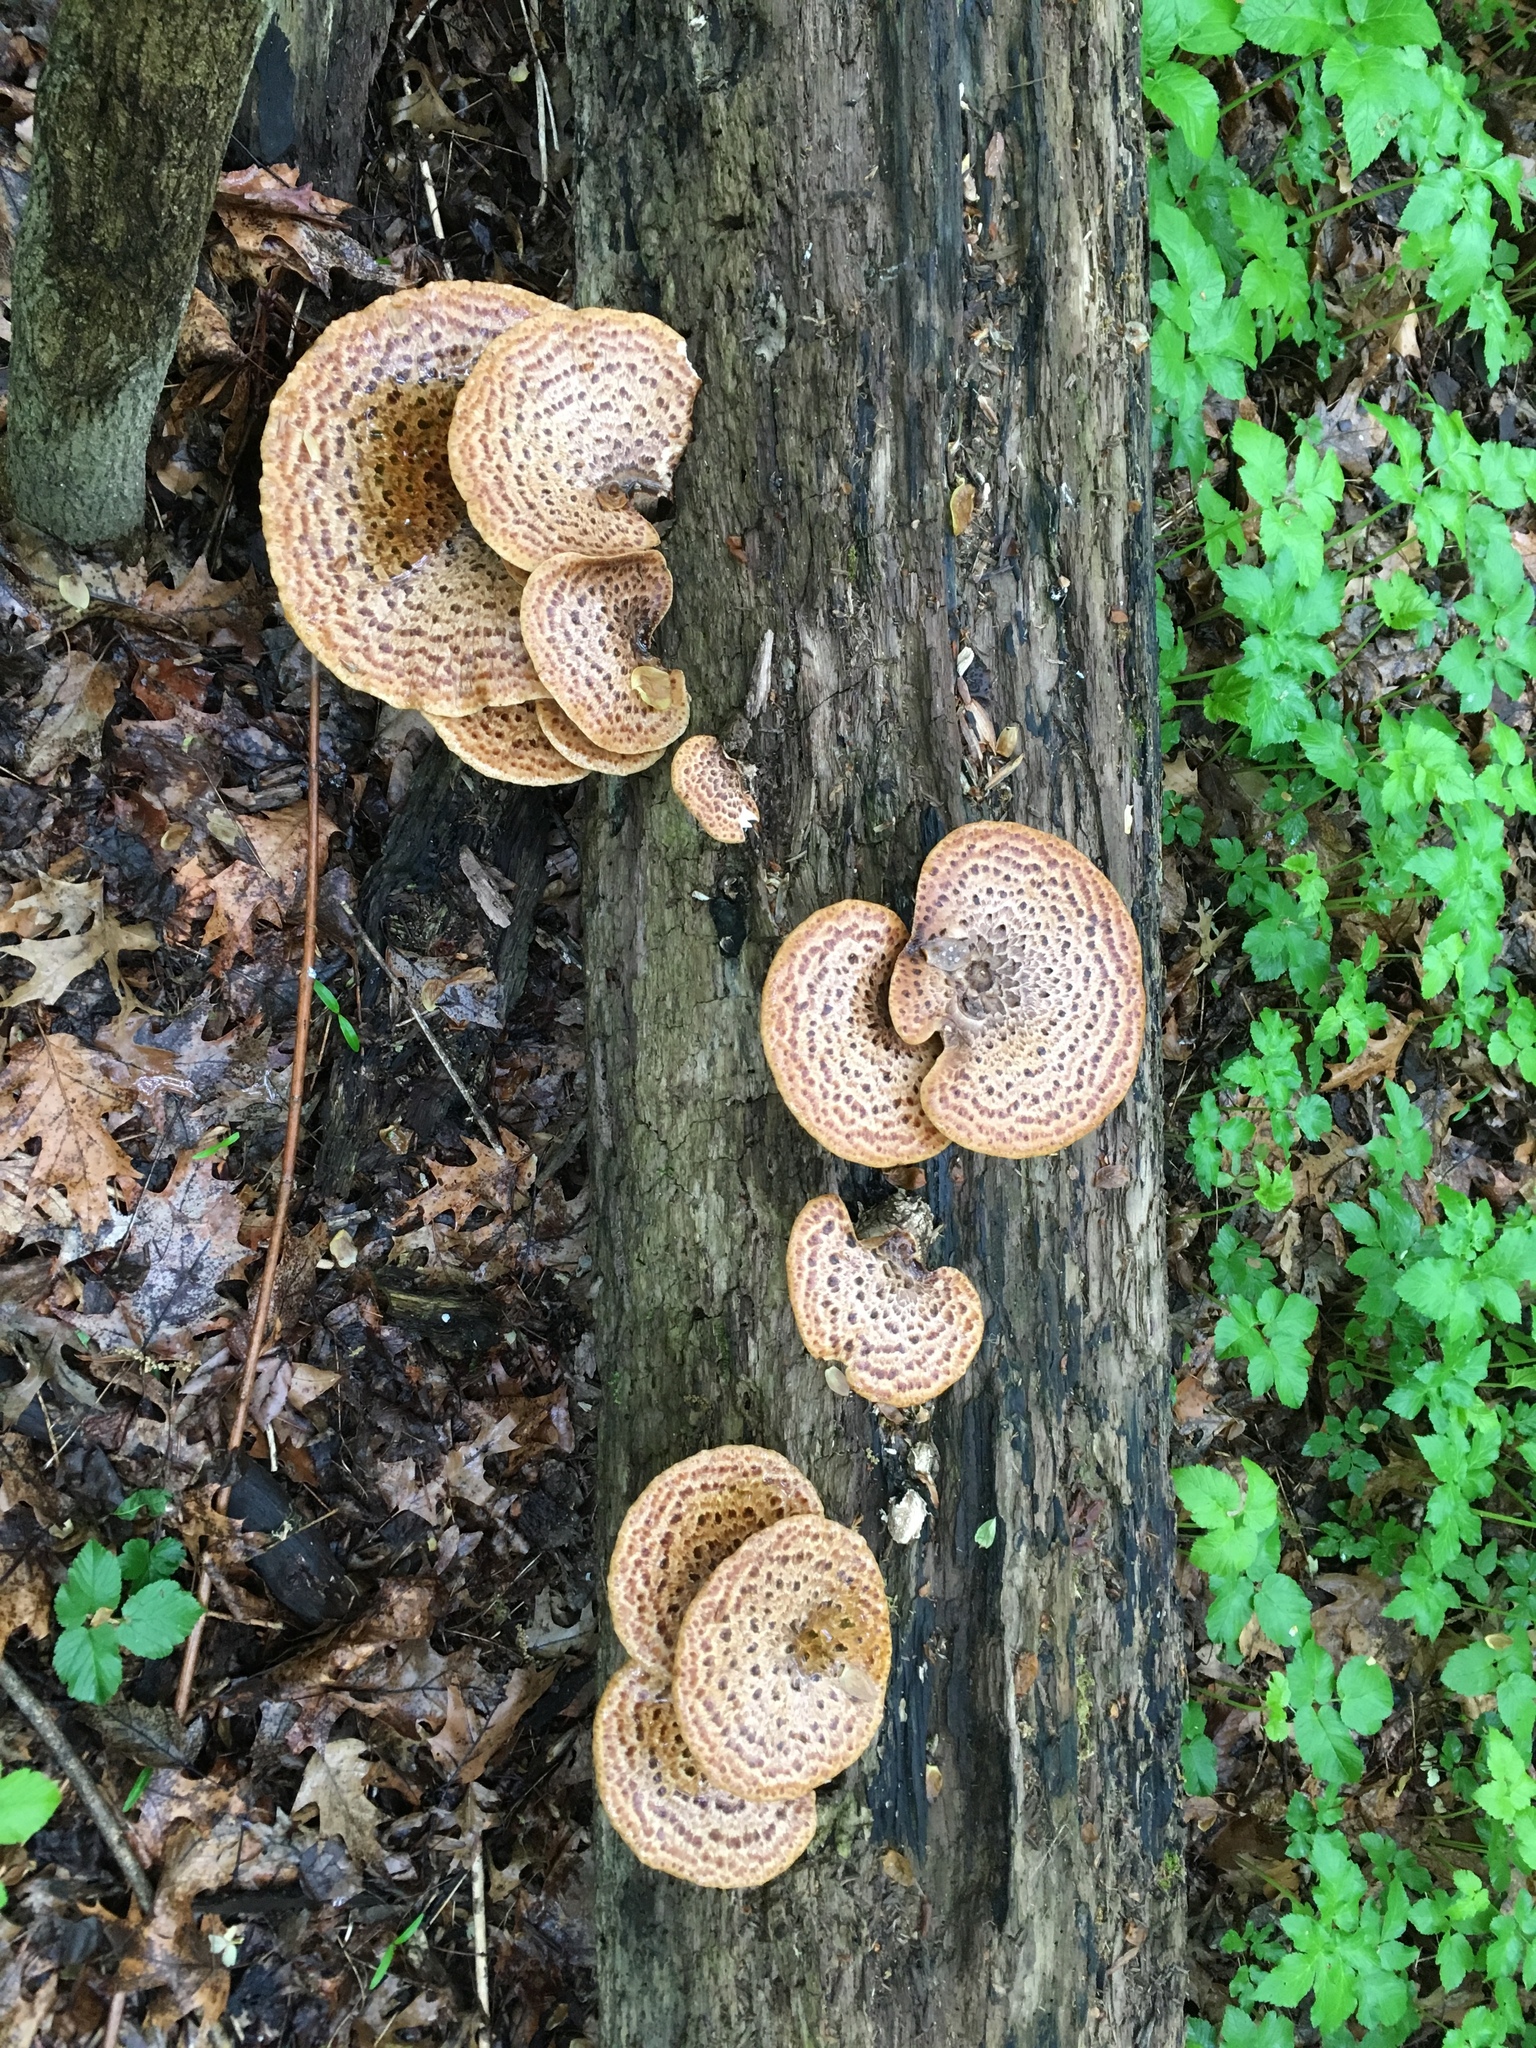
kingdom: Fungi
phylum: Basidiomycota
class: Agaricomycetes
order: Polyporales
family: Polyporaceae
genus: Cerioporus
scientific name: Cerioporus squamosus
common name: Dryad's saddle
